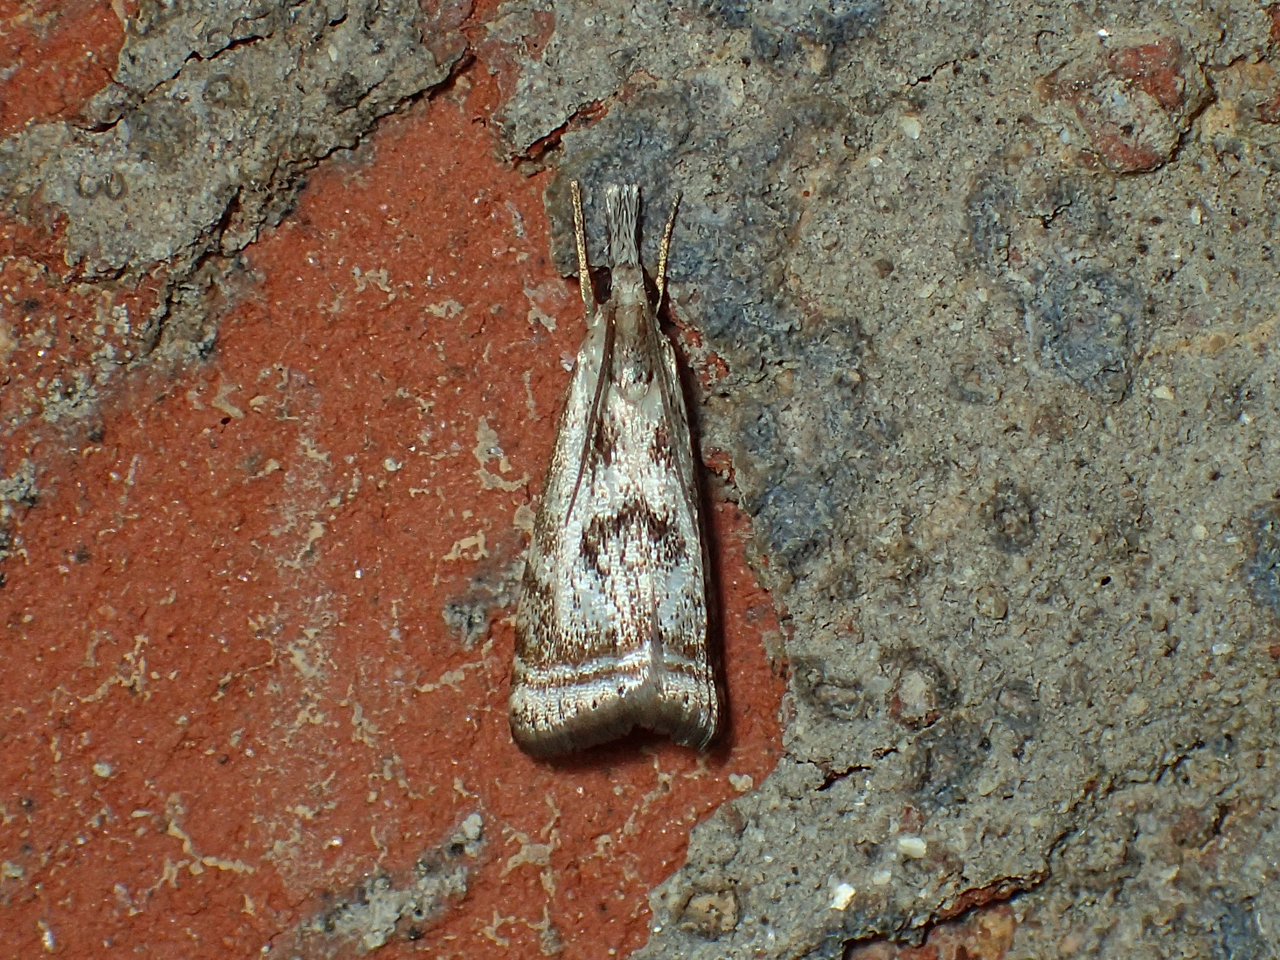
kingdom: Animalia
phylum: Arthropoda
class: Insecta
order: Lepidoptera
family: Crambidae
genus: Microcrambus
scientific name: Microcrambus elegans
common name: Elegant grass-veneer
